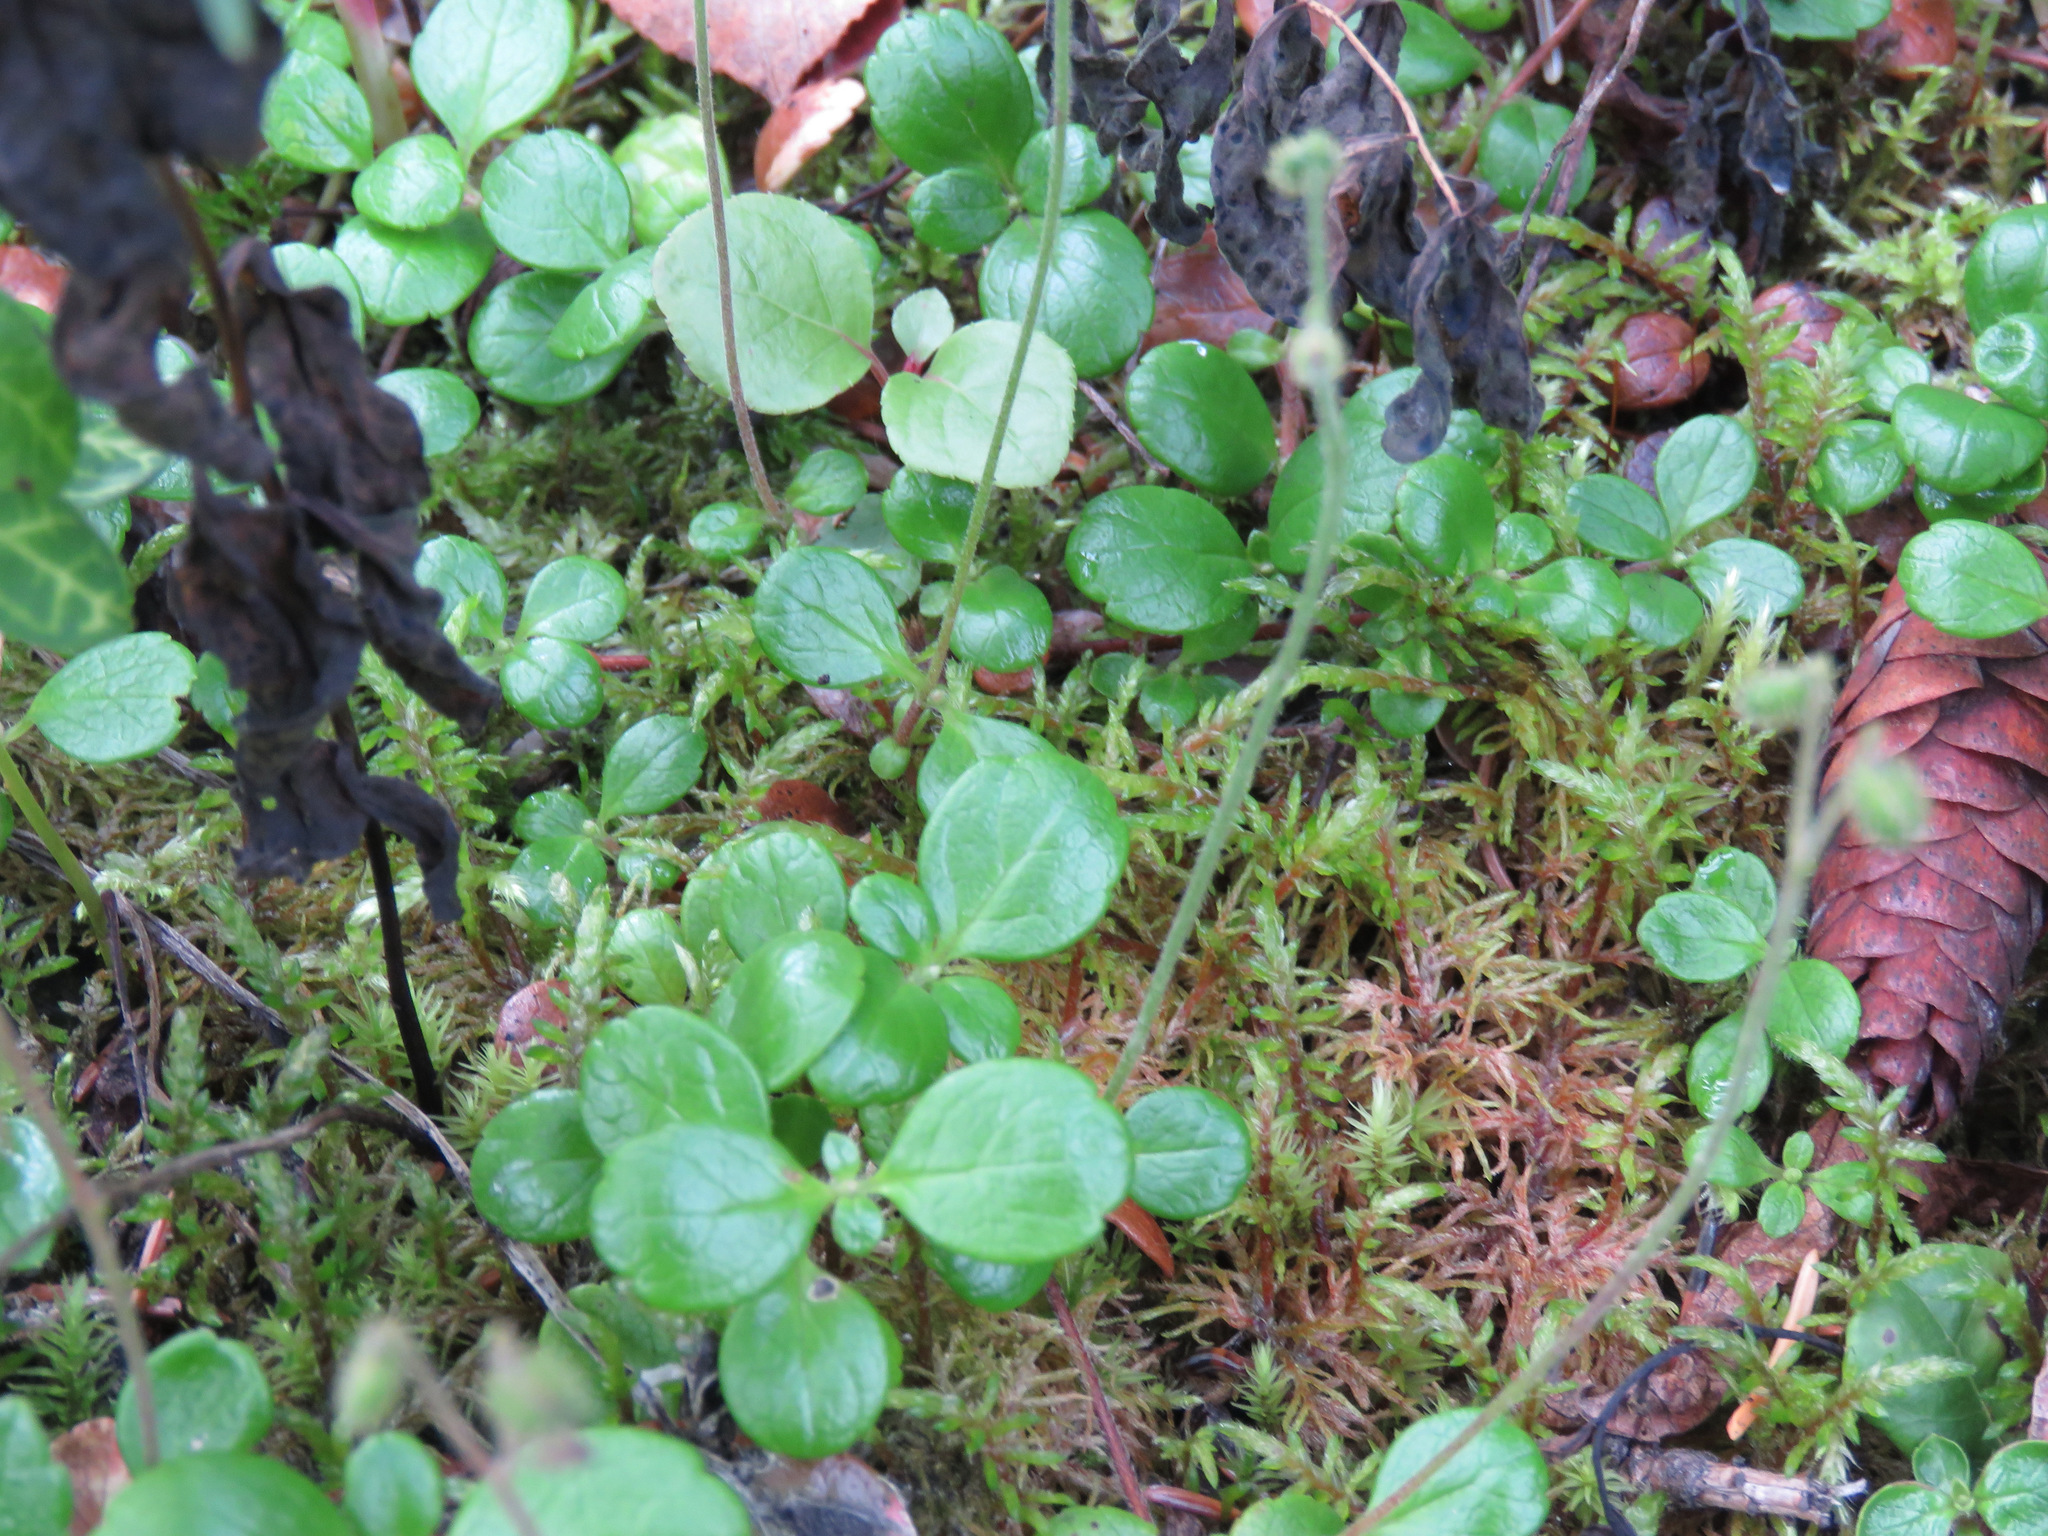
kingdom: Plantae
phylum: Tracheophyta
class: Magnoliopsida
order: Dipsacales
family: Caprifoliaceae
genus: Linnaea
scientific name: Linnaea borealis
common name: Twinflower
